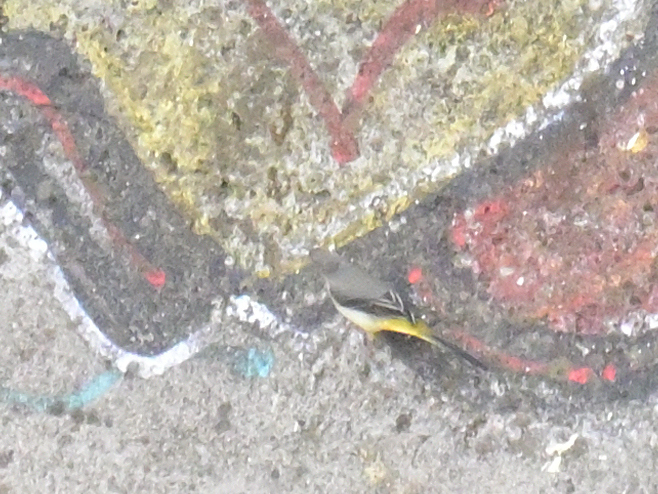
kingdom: Animalia
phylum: Chordata
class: Aves
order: Passeriformes
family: Motacillidae
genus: Motacilla
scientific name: Motacilla cinerea
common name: Grey wagtail
